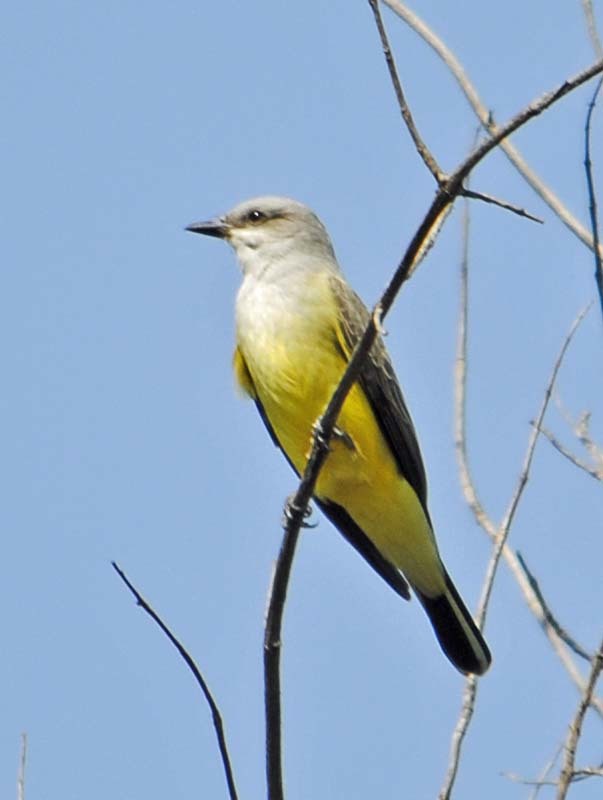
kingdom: Animalia
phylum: Chordata
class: Aves
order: Passeriformes
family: Tyrannidae
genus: Tyrannus
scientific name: Tyrannus vociferans
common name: Cassin's kingbird
